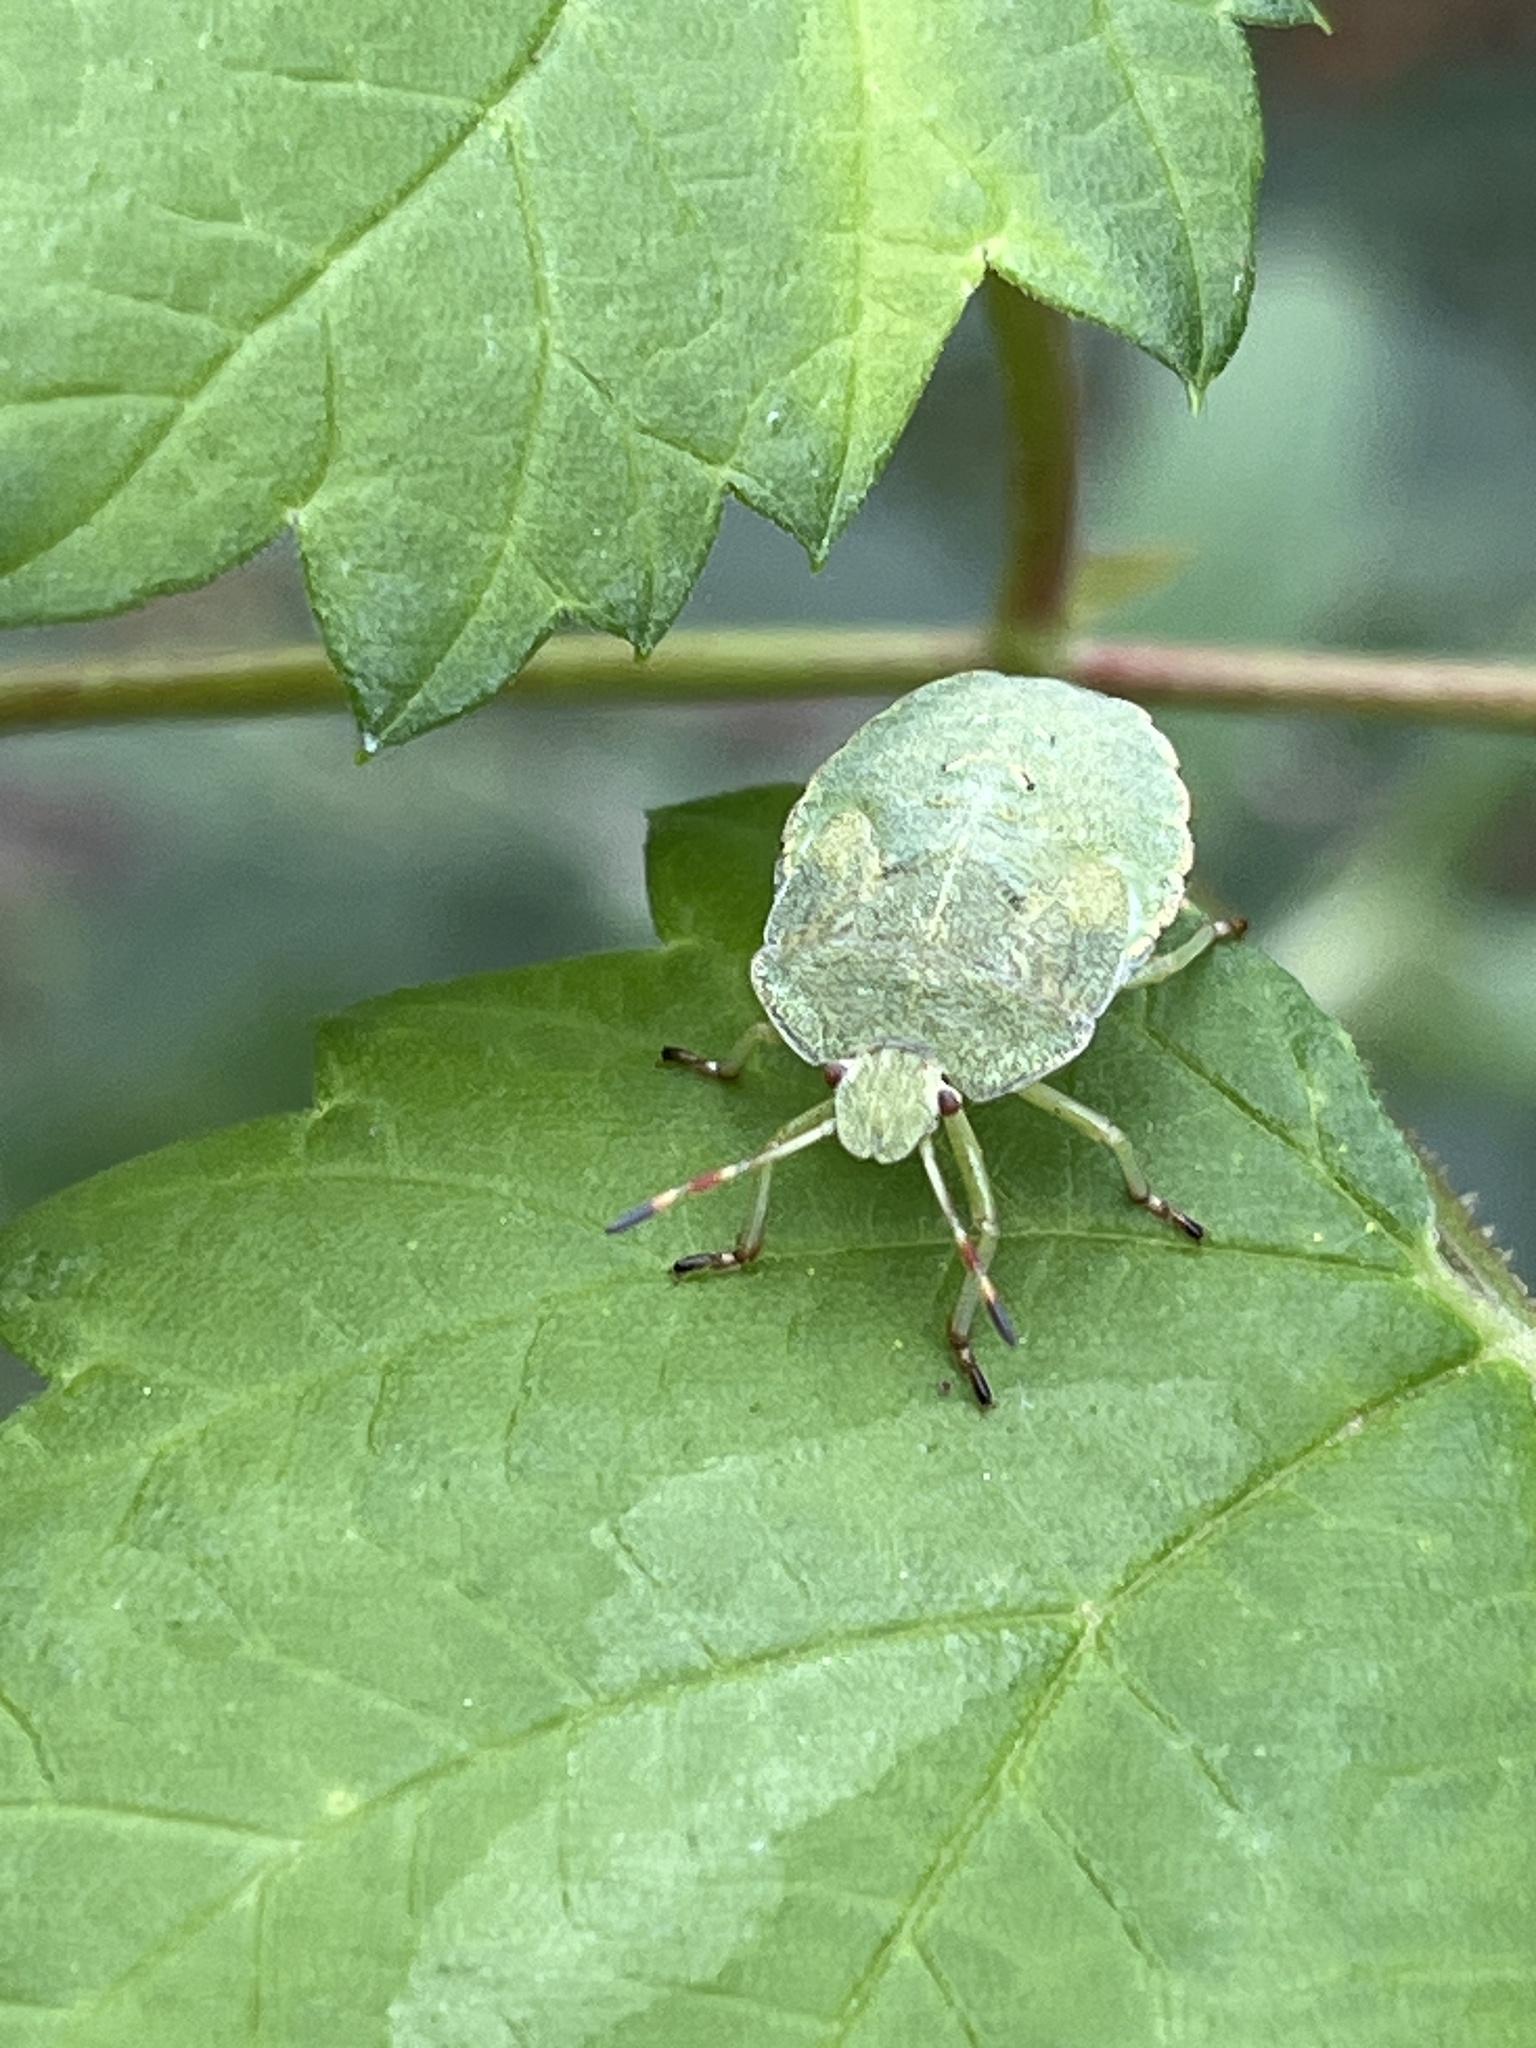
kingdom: Animalia
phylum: Arthropoda
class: Insecta
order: Hemiptera
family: Pentatomidae
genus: Palomena
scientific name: Palomena prasina
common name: Green shieldbug
